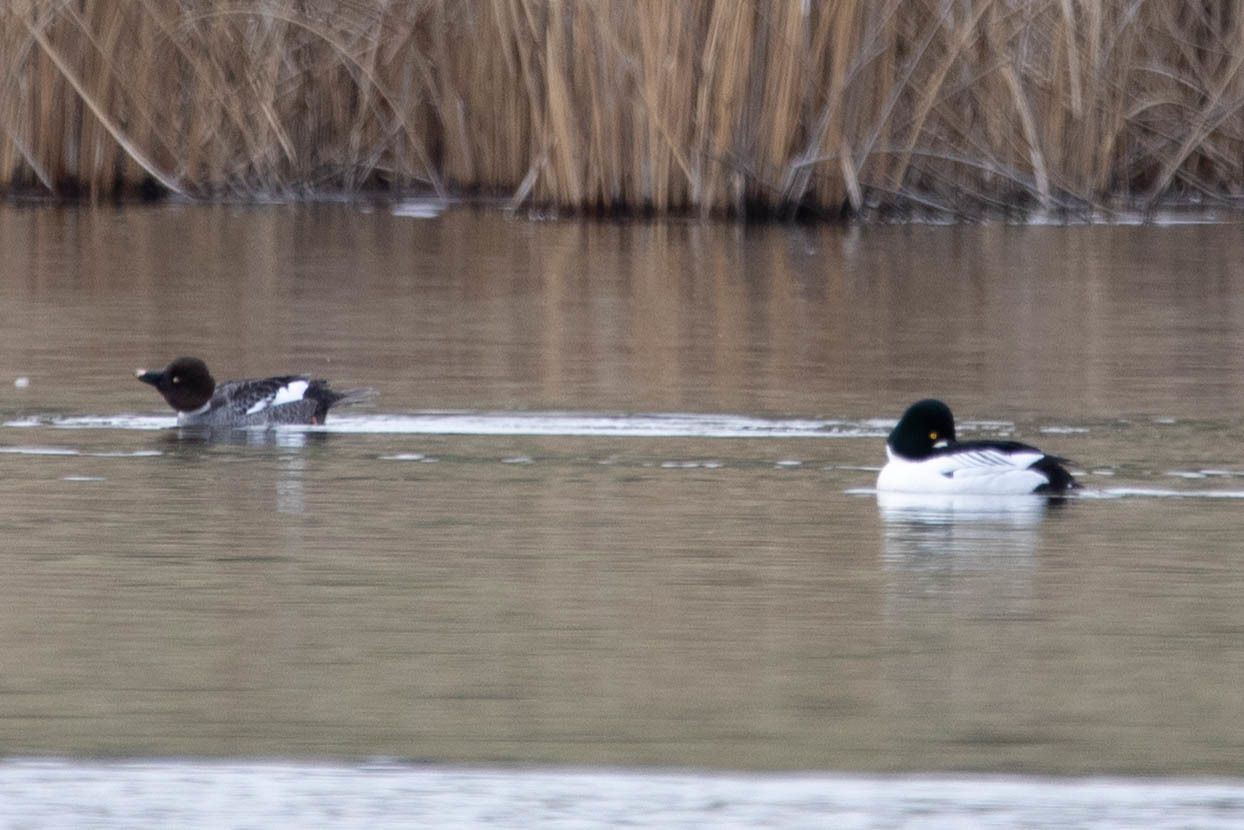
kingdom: Animalia
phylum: Chordata
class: Aves
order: Anseriformes
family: Anatidae
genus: Bucephala
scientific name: Bucephala clangula
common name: Common goldeneye
